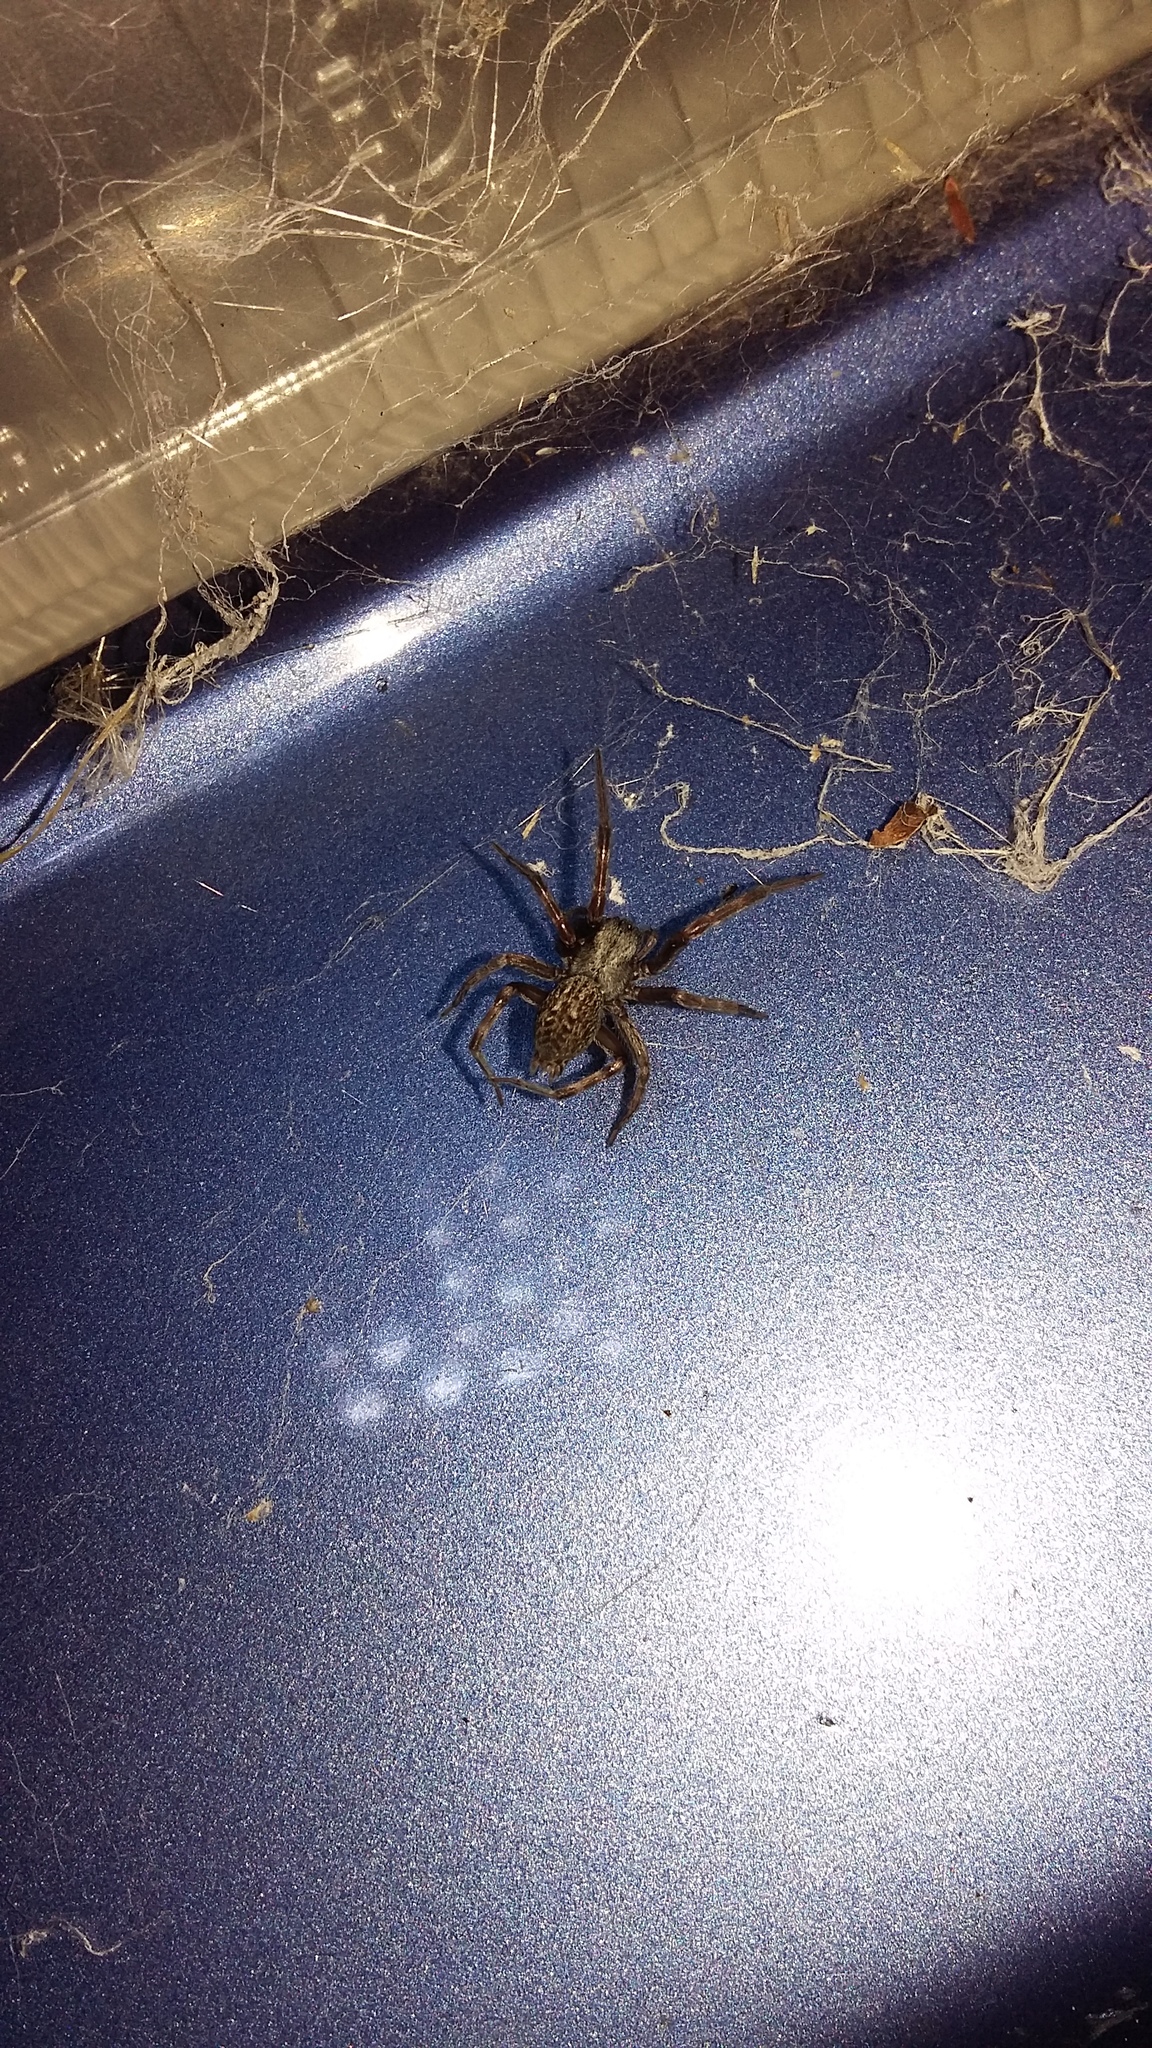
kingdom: Animalia
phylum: Arthropoda
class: Arachnida
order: Araneae
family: Desidae
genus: Badumna
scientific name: Badumna longinqua
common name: Gray house spider
